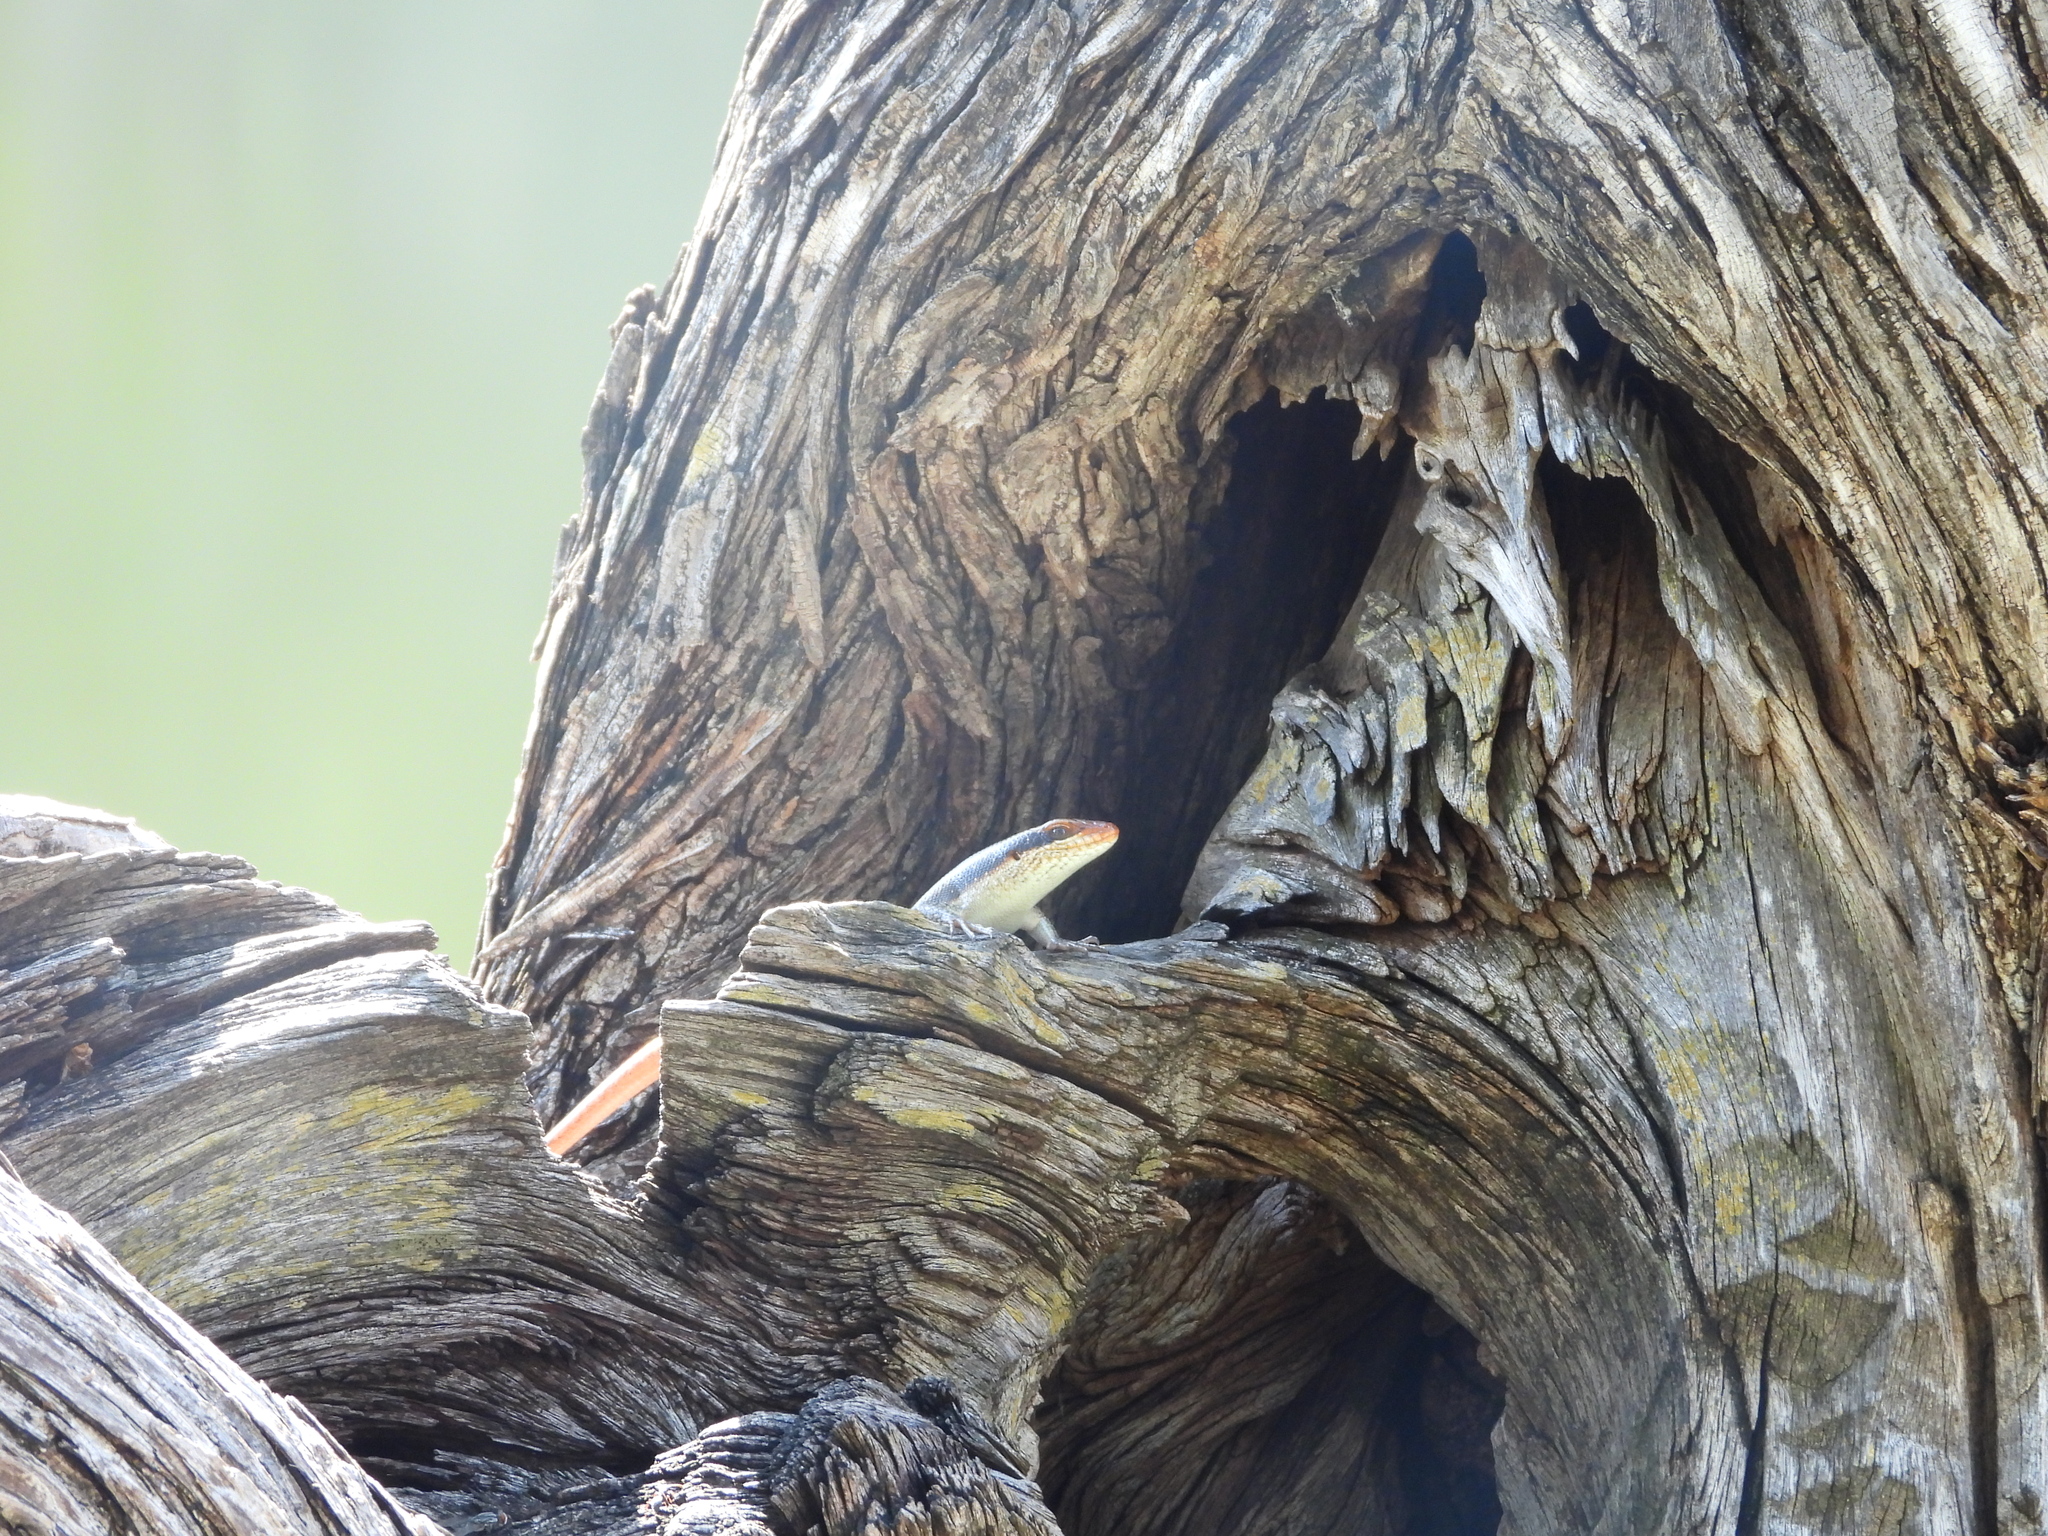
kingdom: Animalia
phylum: Chordata
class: Squamata
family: Scincidae
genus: Trachylepis
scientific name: Trachylepis wahlbergii
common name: Wahlberg’s striped skink
